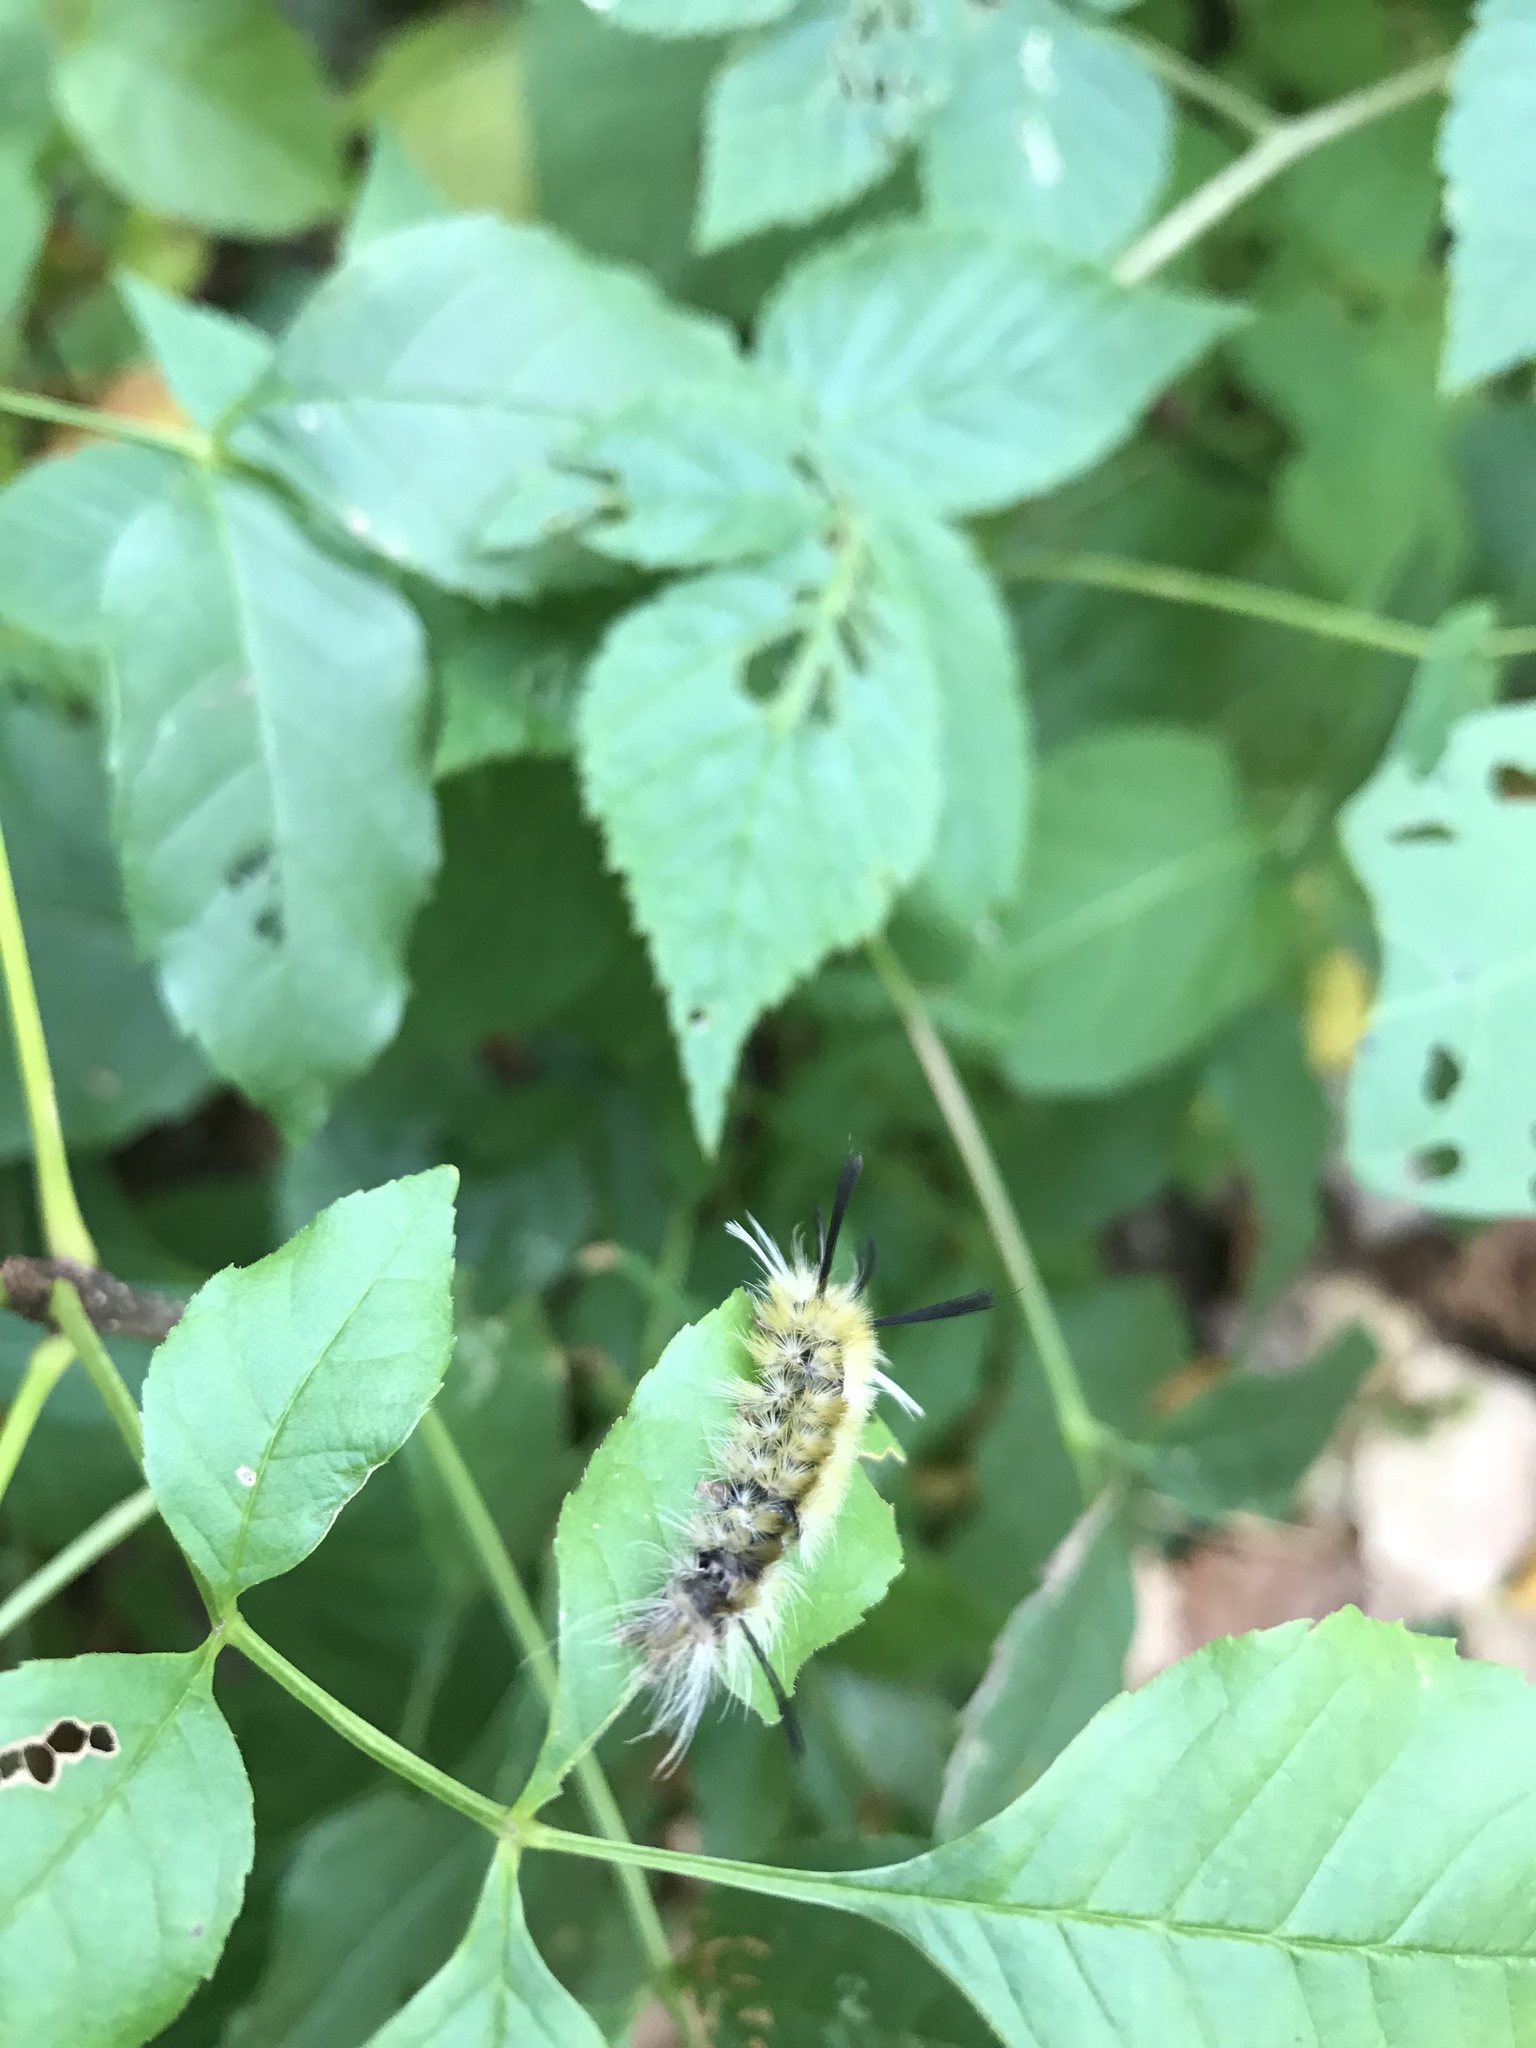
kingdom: Animalia
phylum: Arthropoda
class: Insecta
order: Lepidoptera
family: Erebidae
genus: Halysidota
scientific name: Halysidota tessellaris
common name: Banded tussock moth
